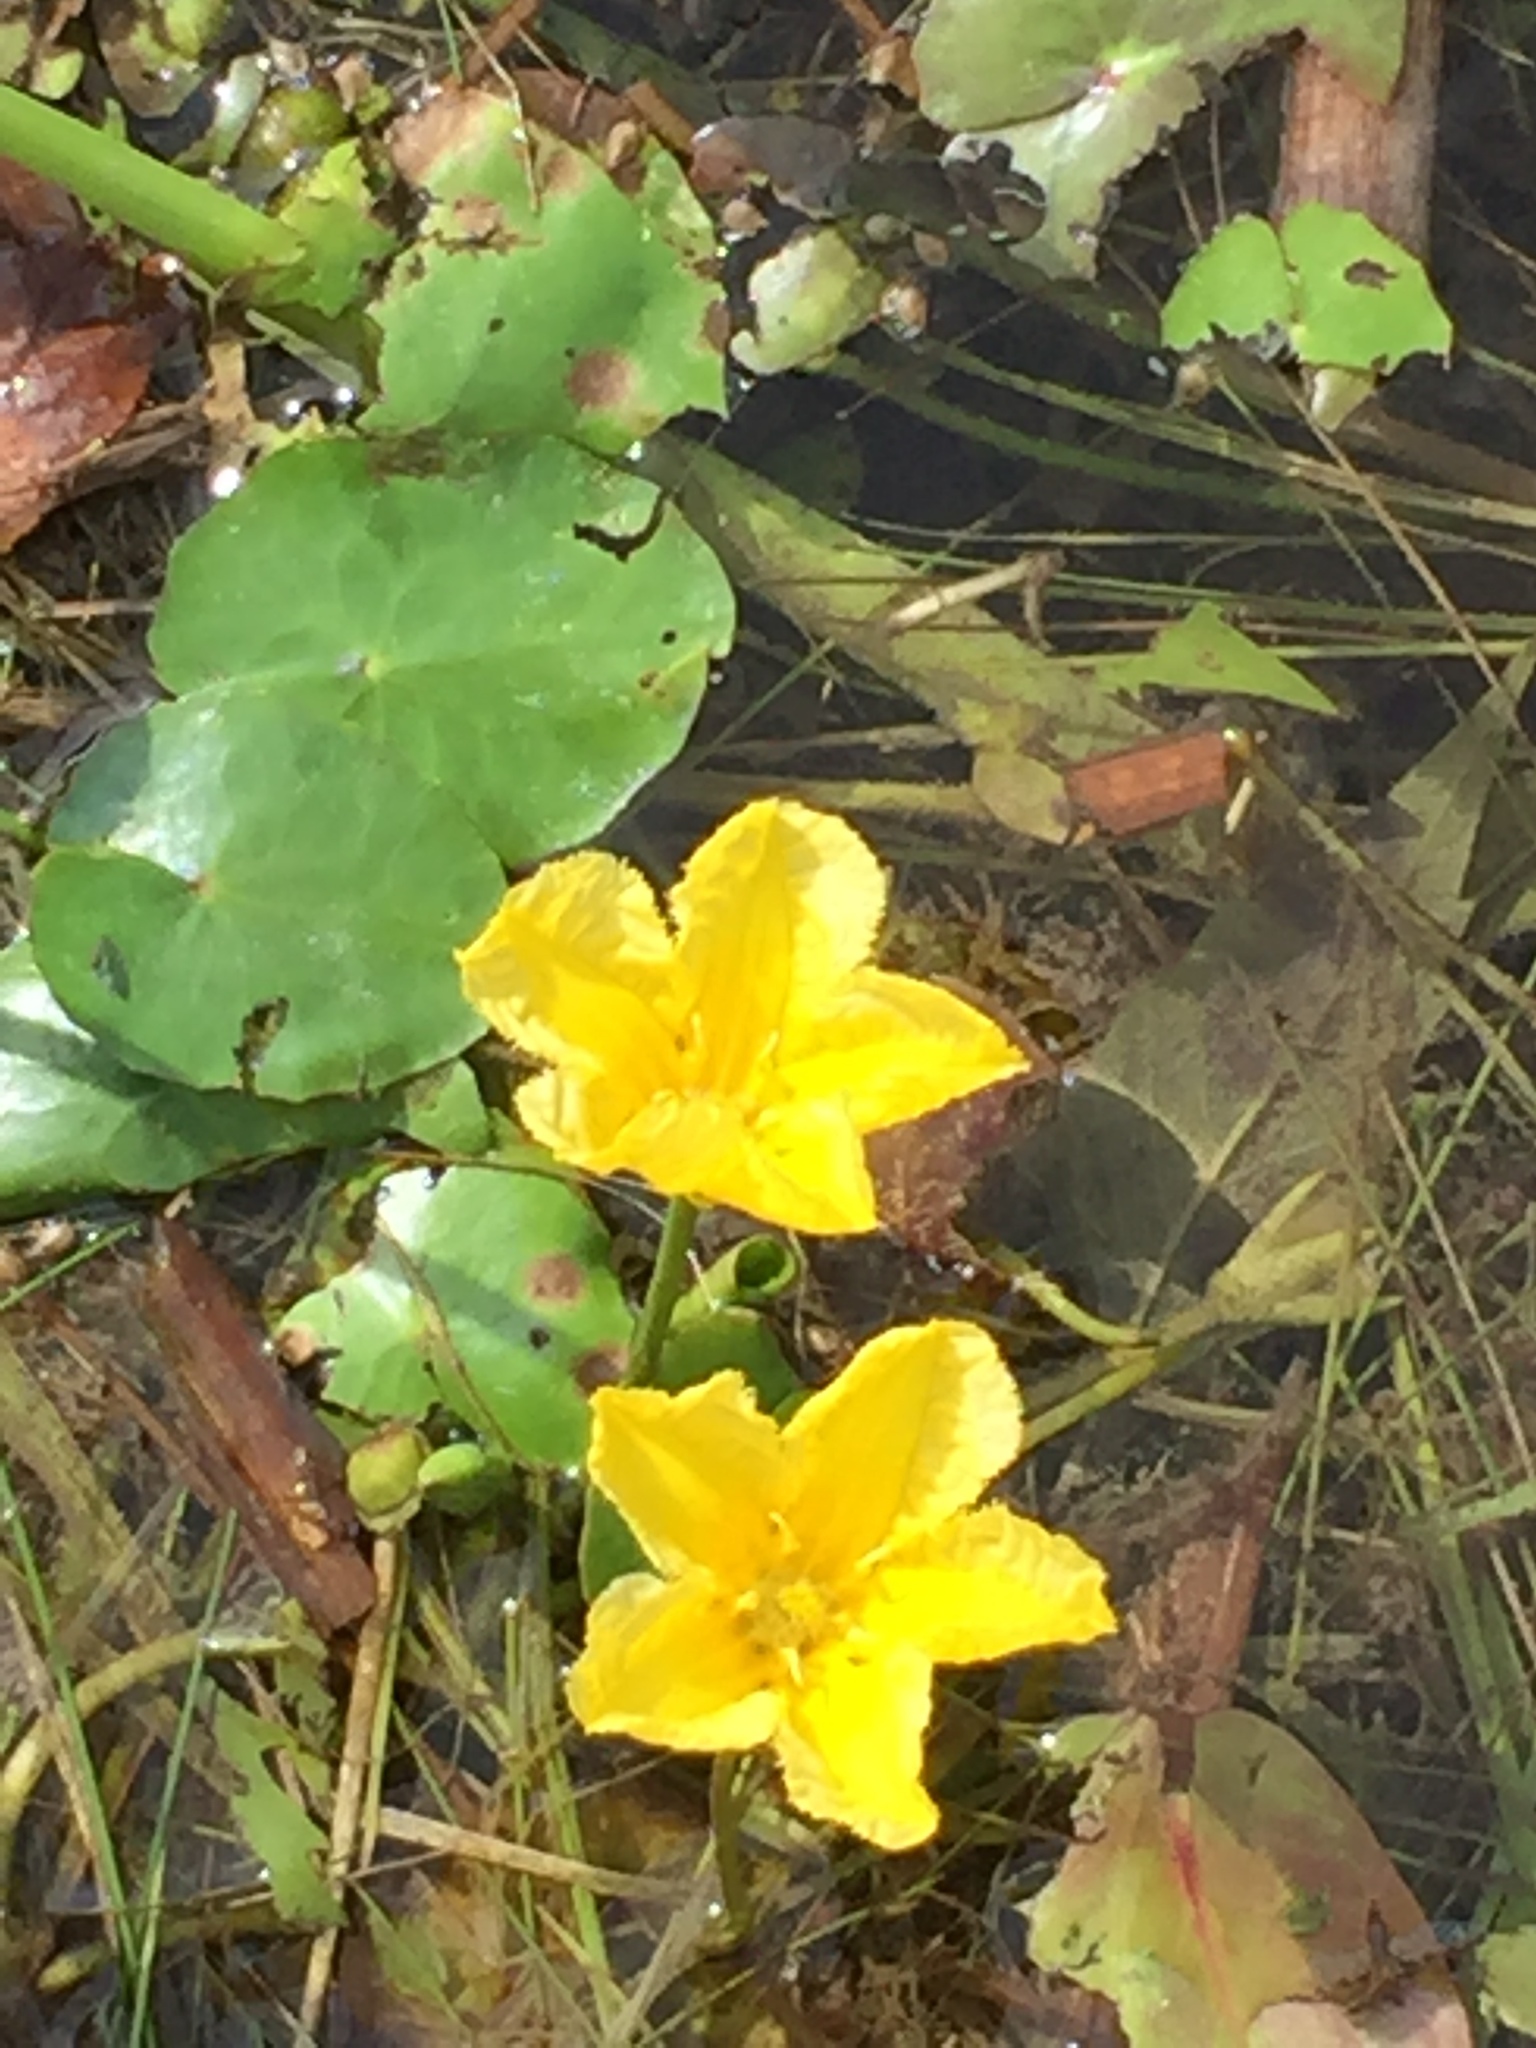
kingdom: Plantae
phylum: Tracheophyta
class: Magnoliopsida
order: Asterales
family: Menyanthaceae
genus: Nymphoides
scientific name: Nymphoides peltata
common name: Fringed water-lily
